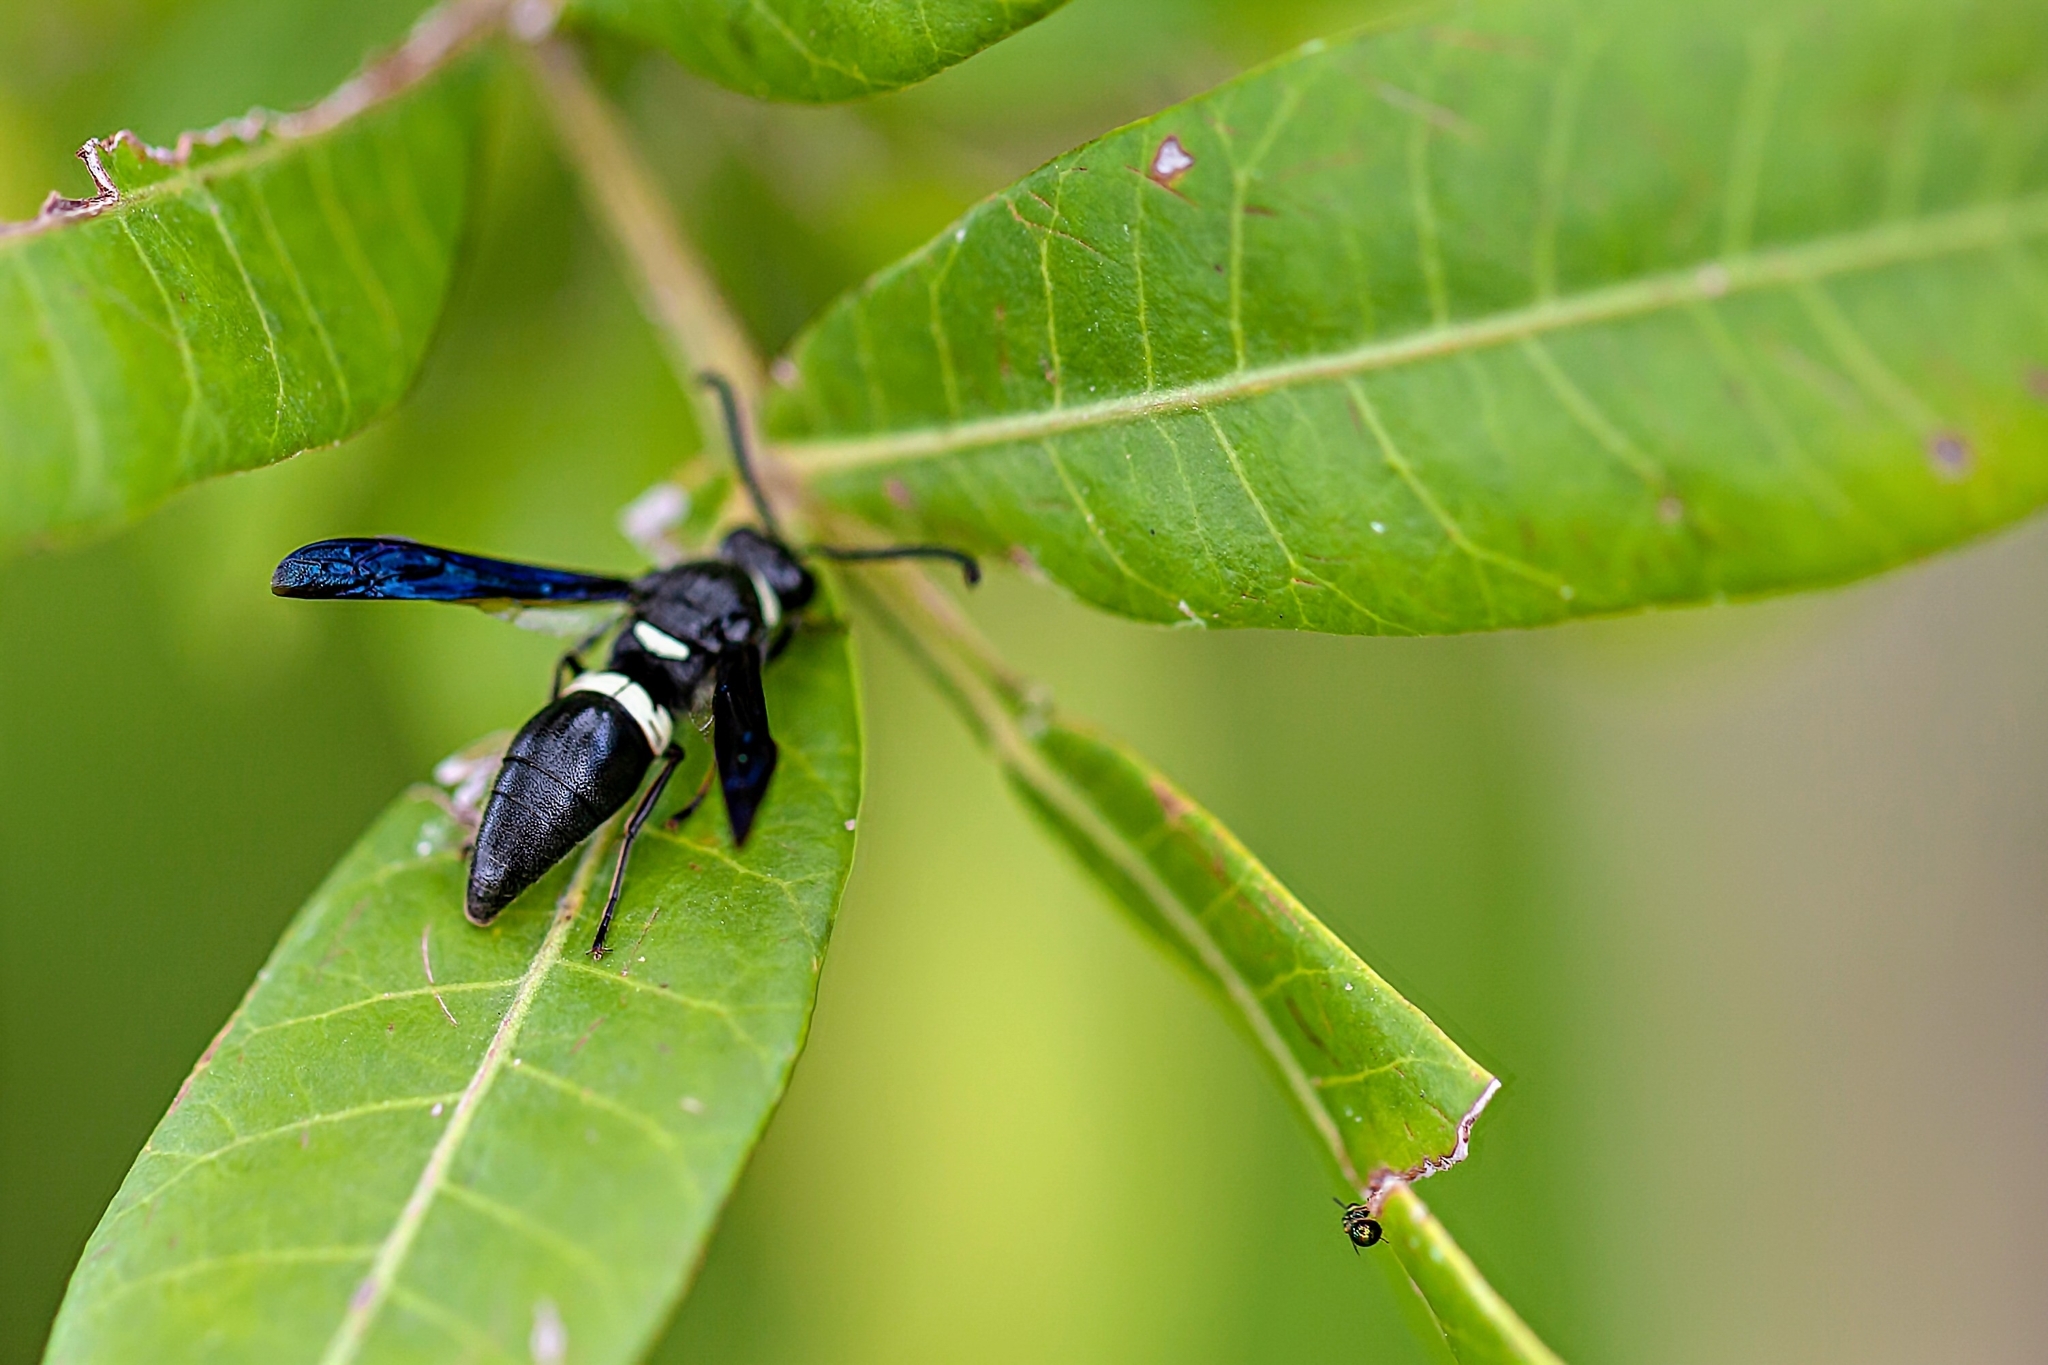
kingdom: Animalia
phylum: Arthropoda
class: Insecta
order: Hymenoptera
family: Eumenidae
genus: Monobia
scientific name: Monobia quadridens
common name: Four-toothed mason wasp
